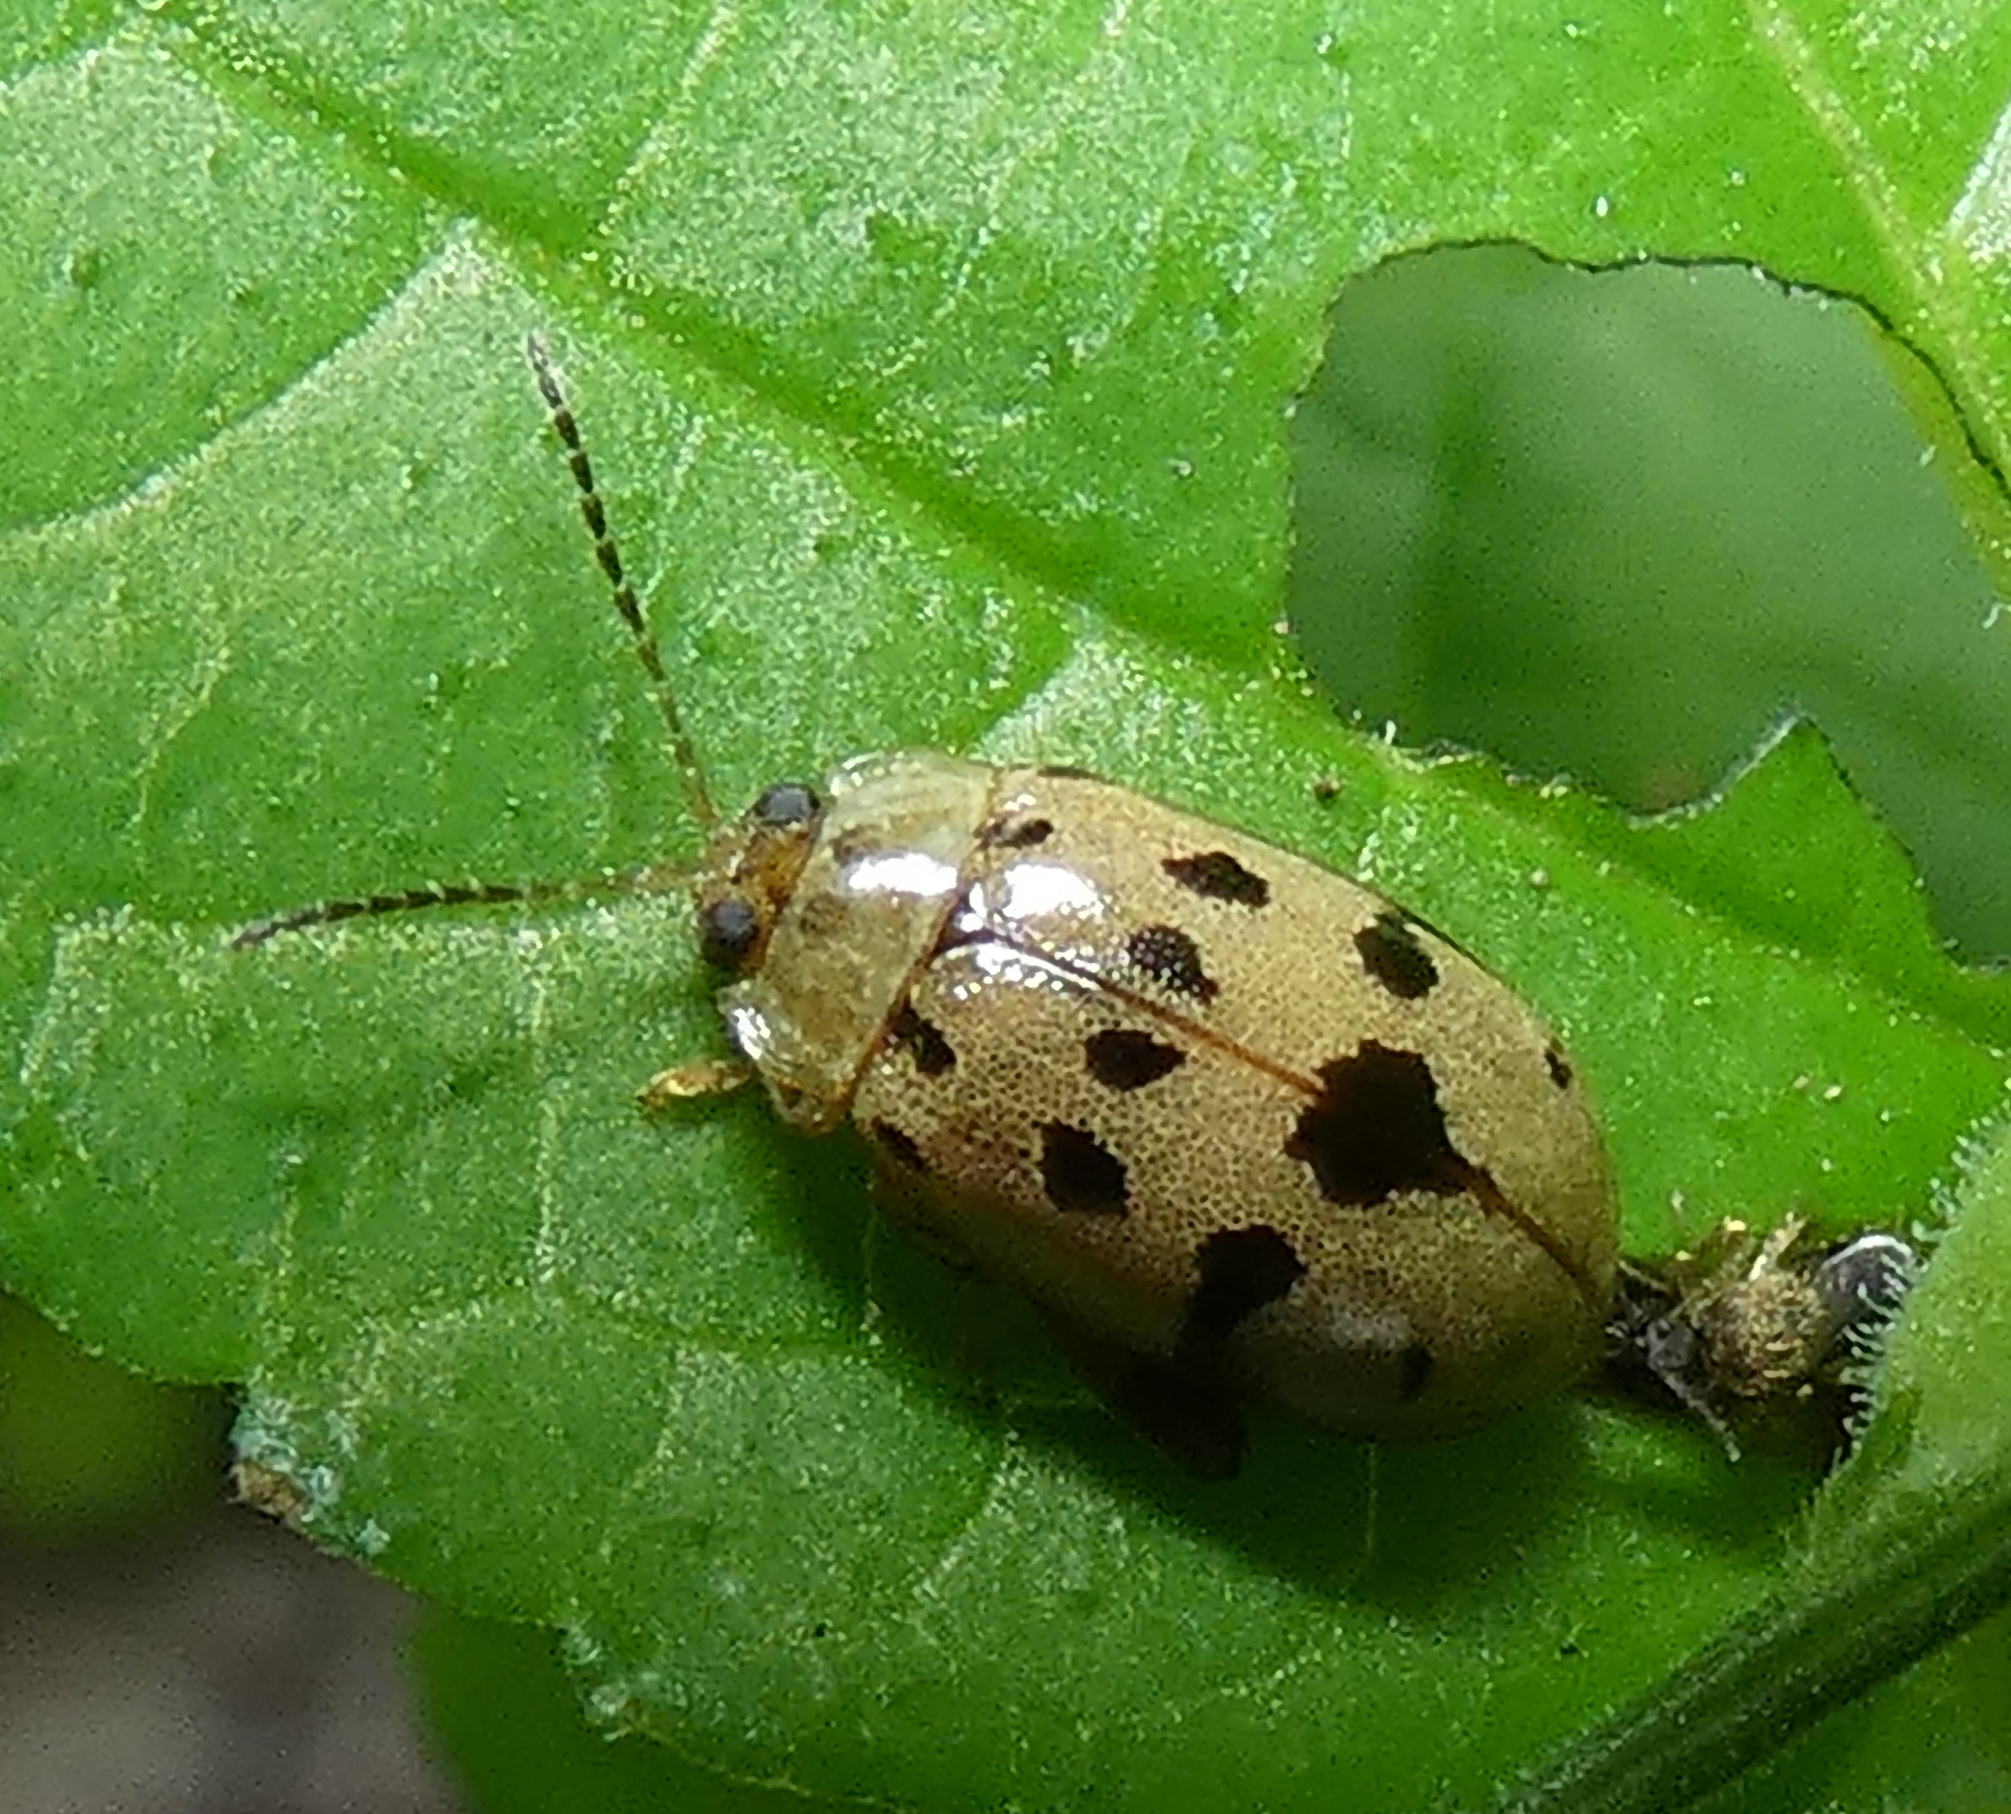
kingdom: Animalia
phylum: Arthropoda
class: Insecta
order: Coleoptera
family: Chrysomelidae
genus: Alagoasa
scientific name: Alagoasa
